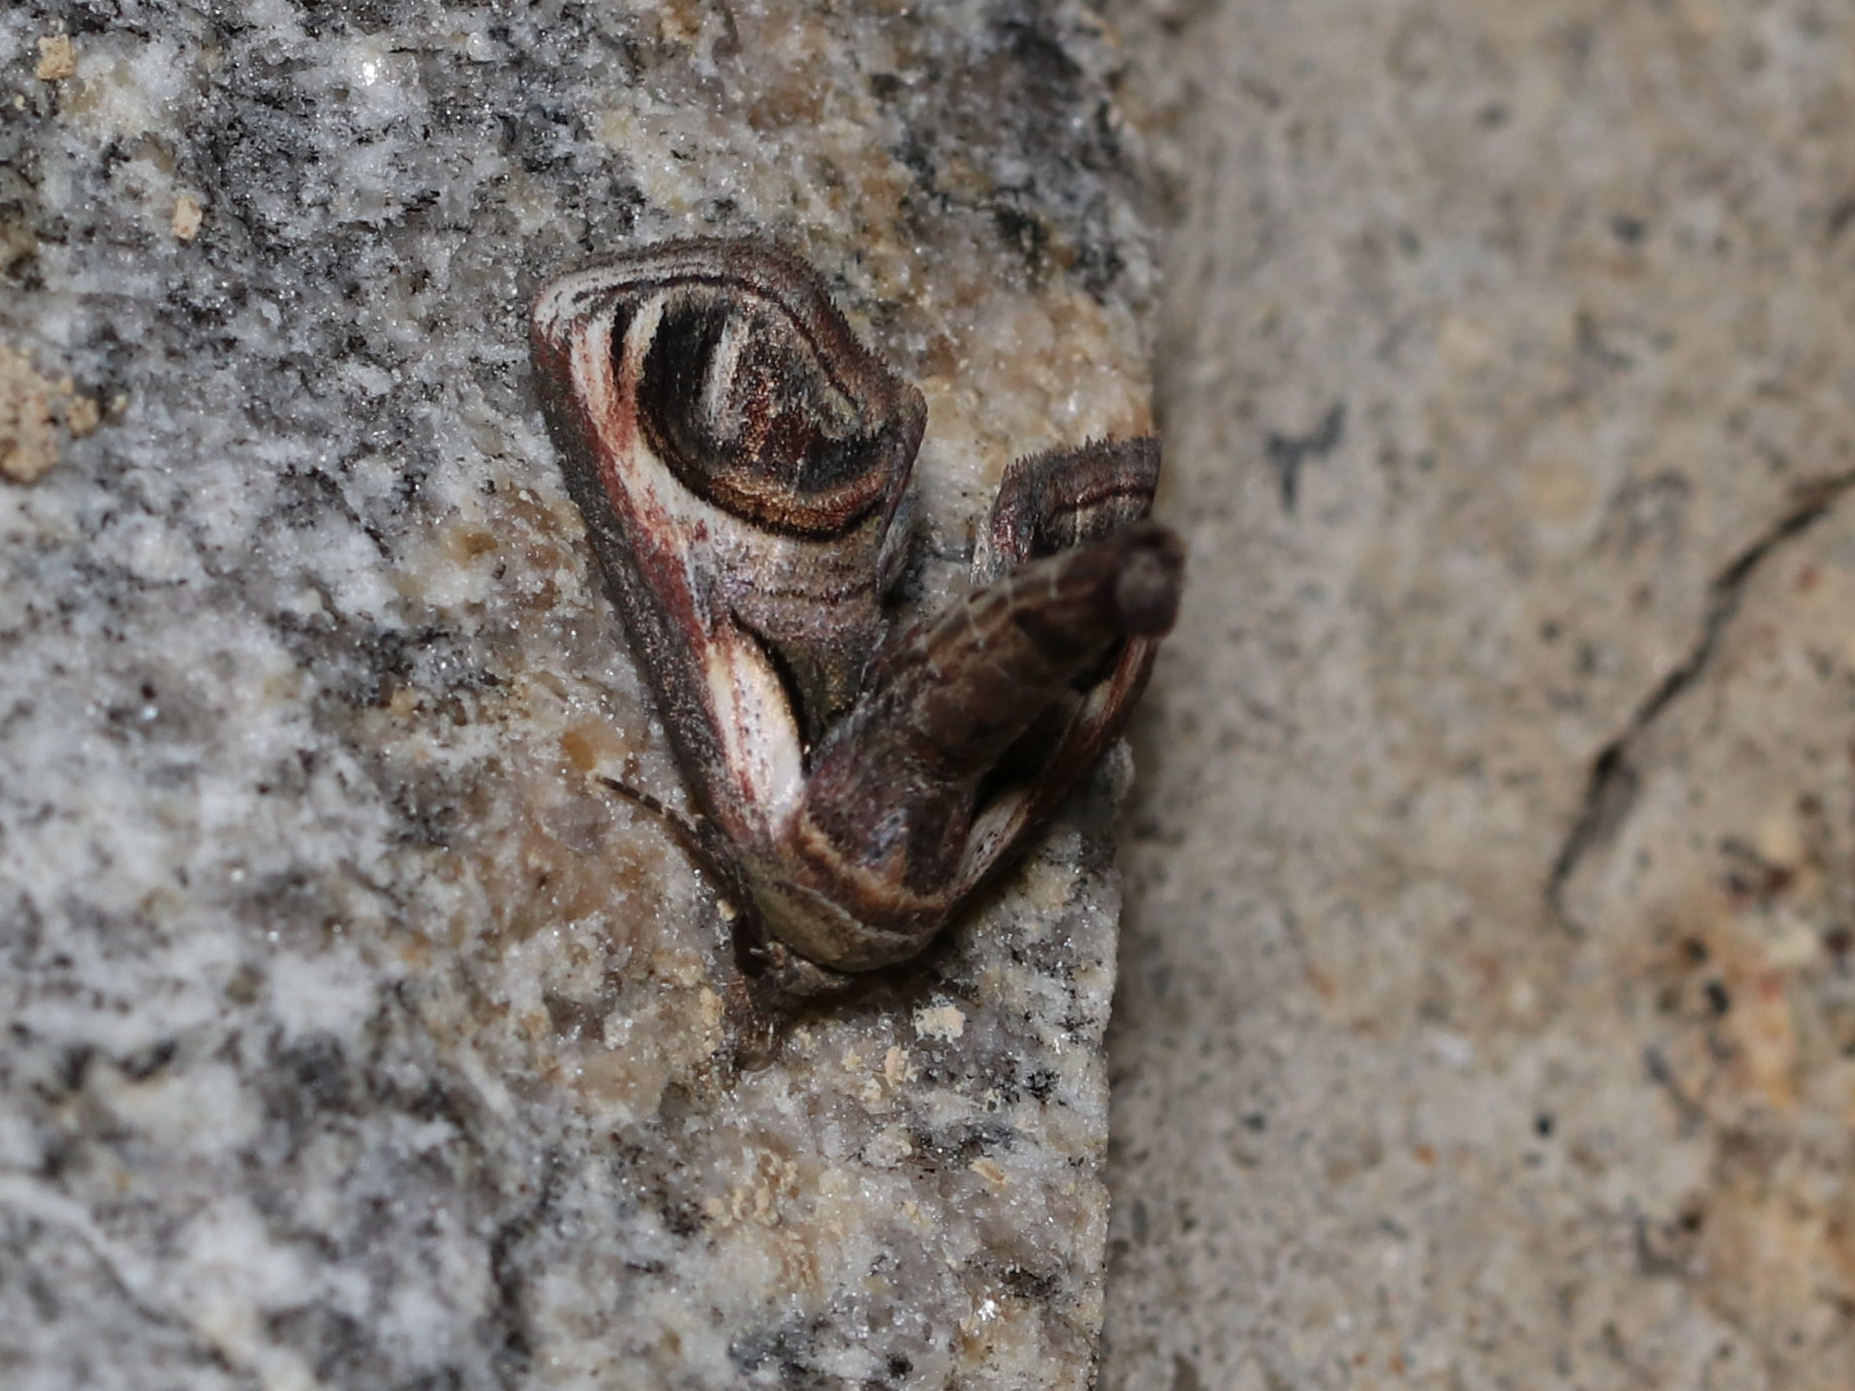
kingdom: Animalia
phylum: Arthropoda
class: Insecta
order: Lepidoptera
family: Euteliidae
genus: Paectes
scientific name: Paectes oculatrix
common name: Eyed paectes moth
